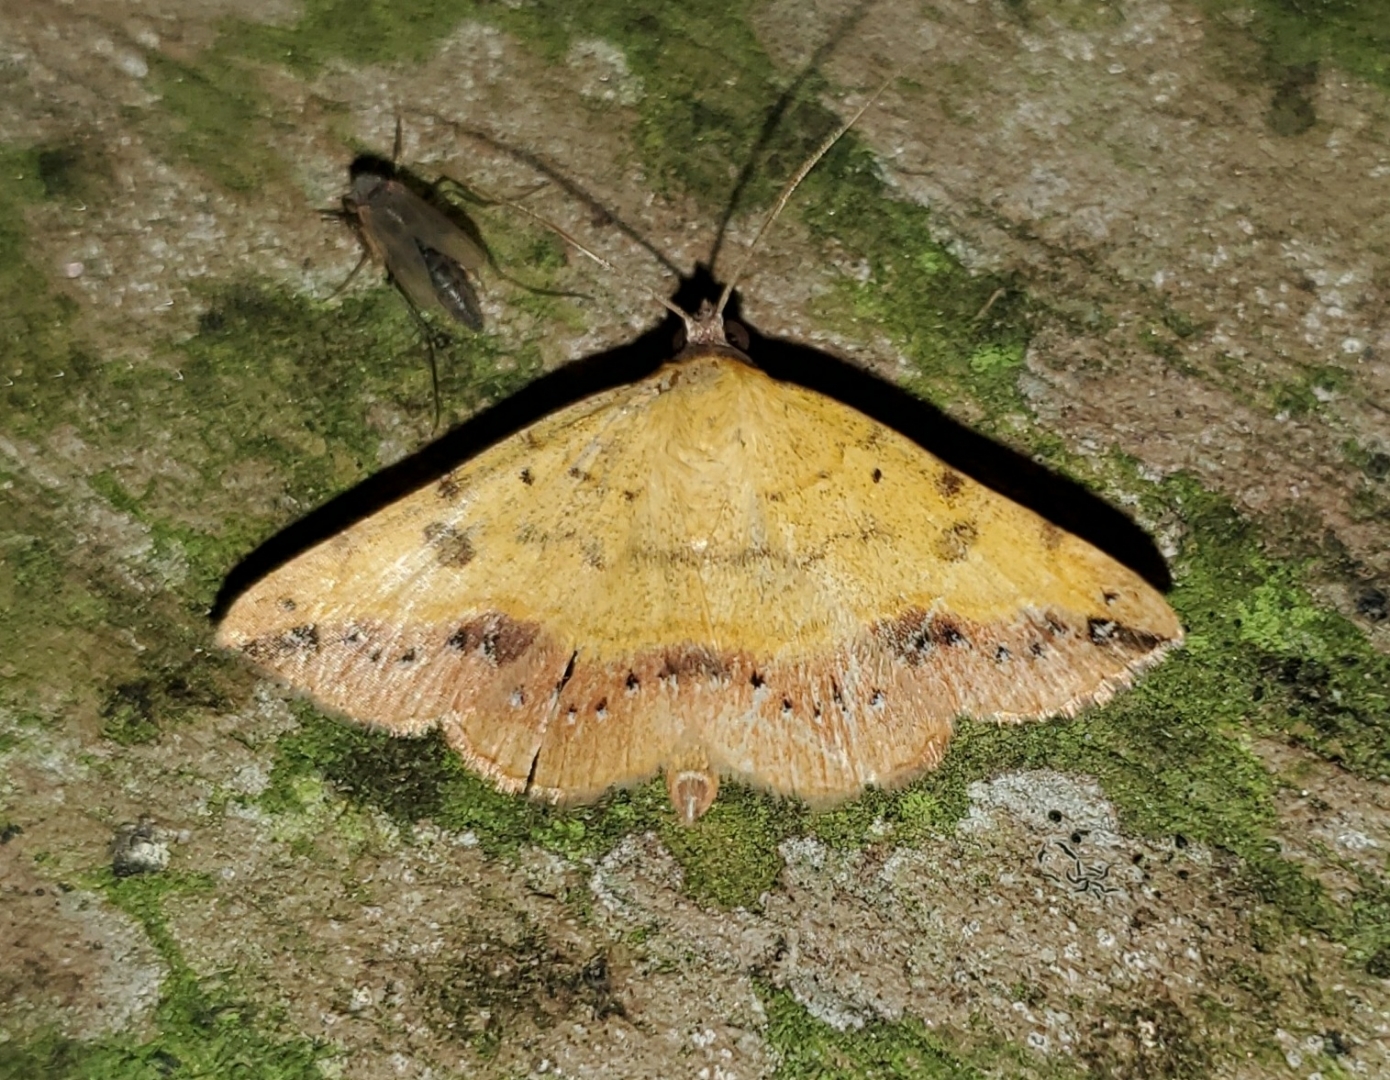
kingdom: Animalia
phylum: Arthropoda
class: Insecta
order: Lepidoptera
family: Erebidae
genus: Hemeroplanis
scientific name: Hemeroplanis scopulepes
